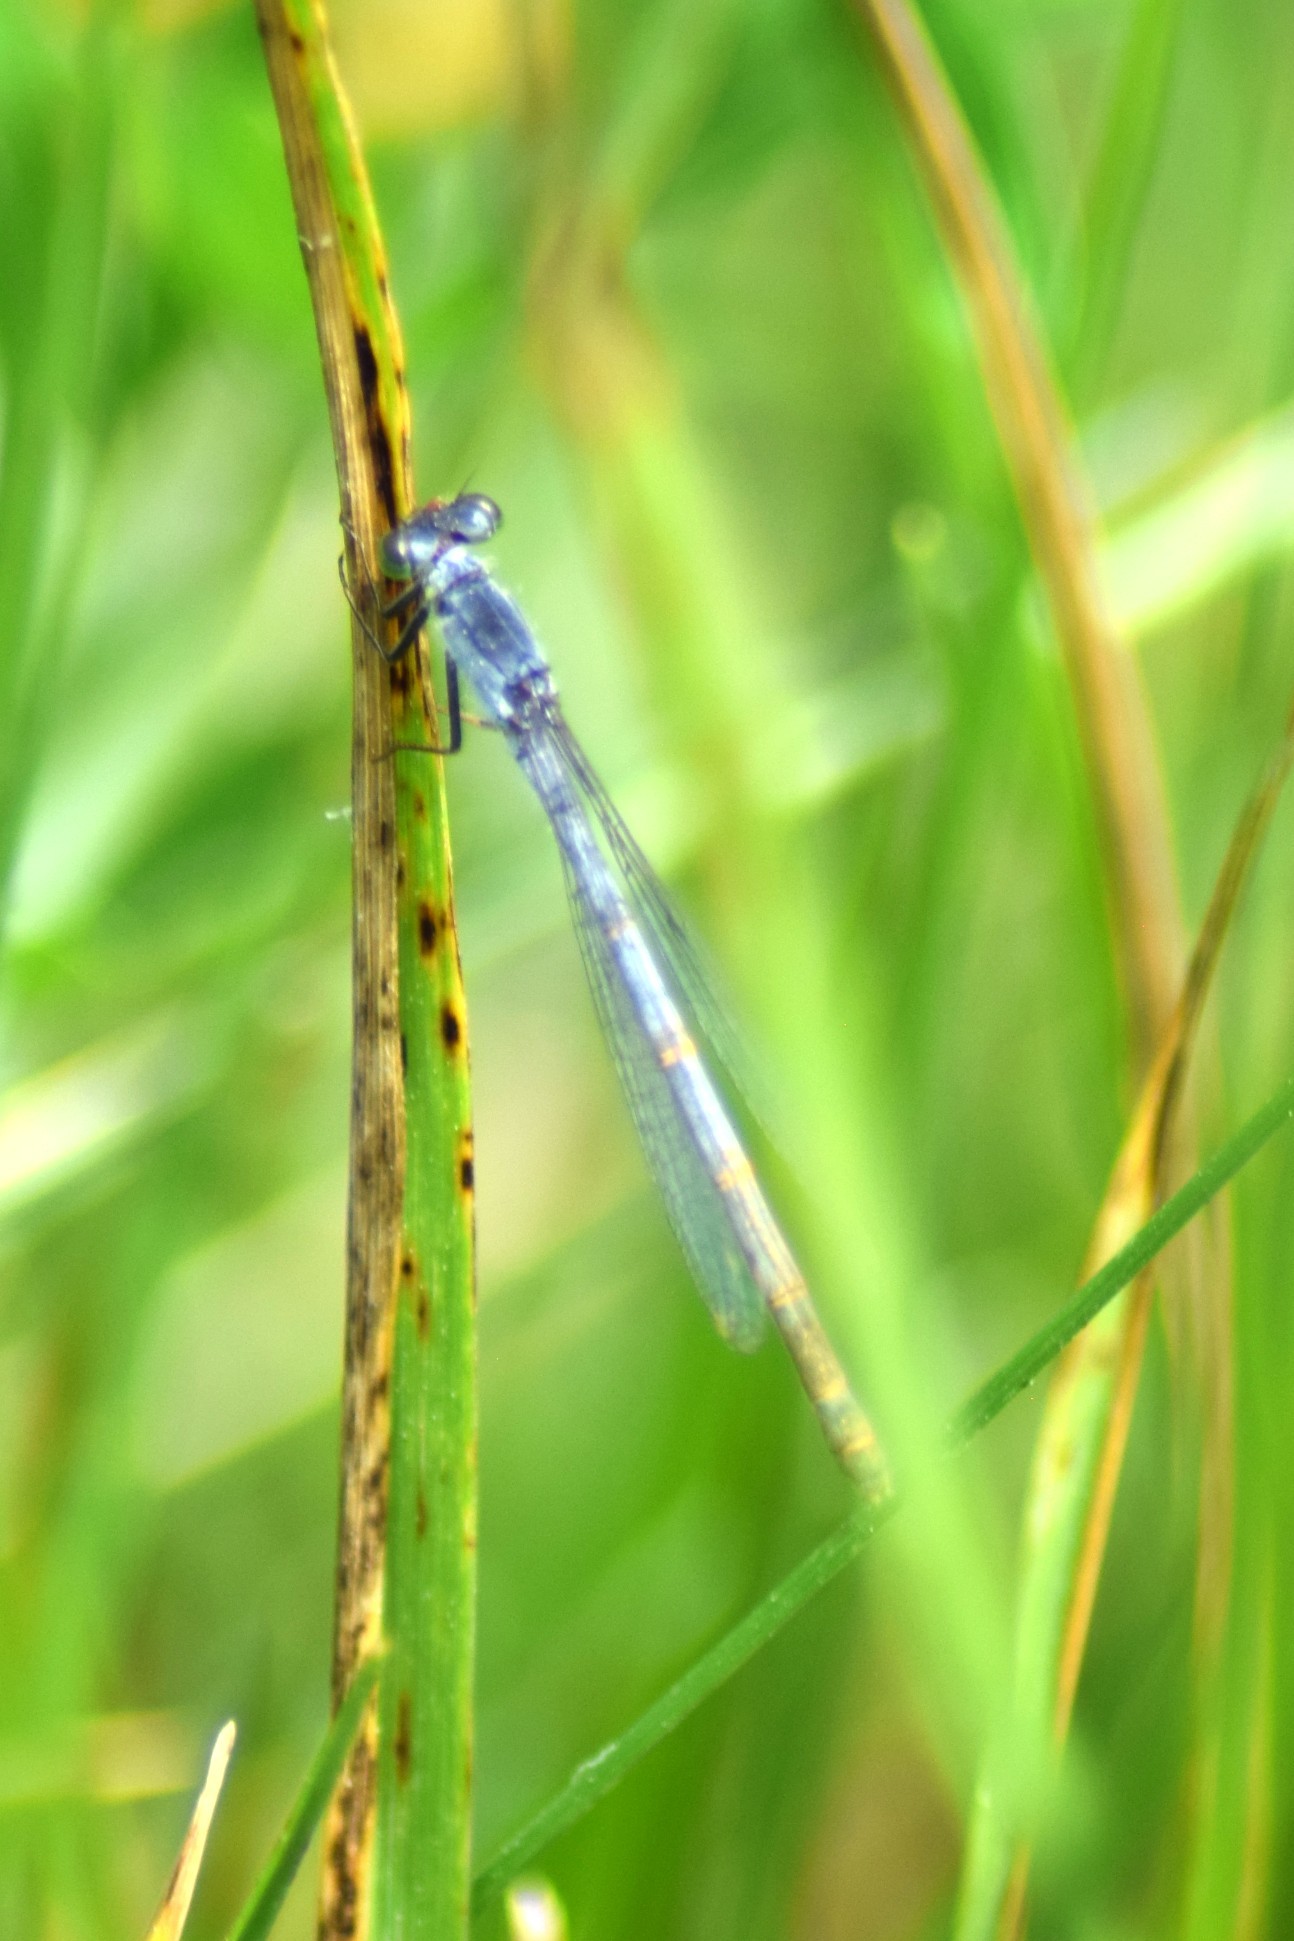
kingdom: Animalia
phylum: Arthropoda
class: Insecta
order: Odonata
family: Coenagrionidae
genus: Ischnura
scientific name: Ischnura verticalis
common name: Eastern forktail
